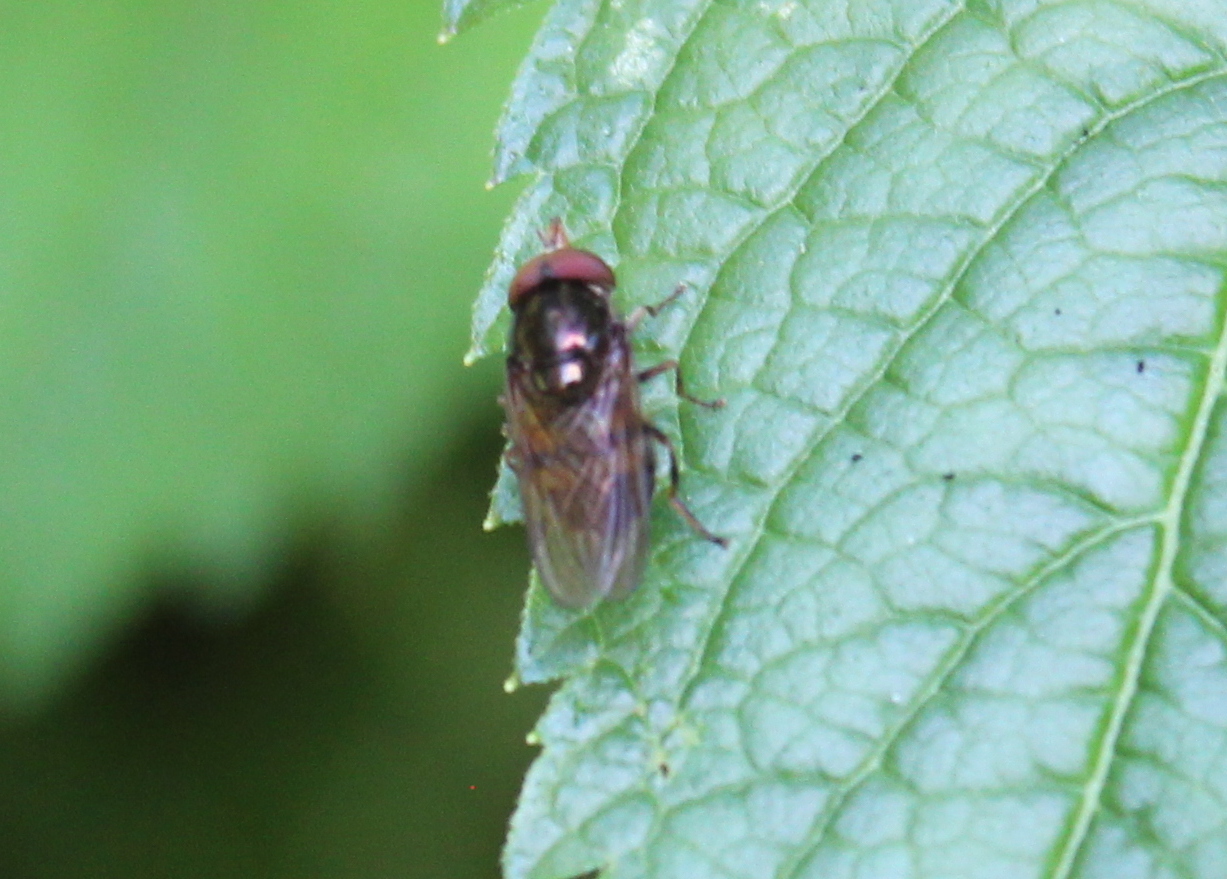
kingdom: Animalia
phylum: Arthropoda
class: Insecta
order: Diptera
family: Syrphidae
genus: Rhingia
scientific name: Rhingia nasica
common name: American snout fly
